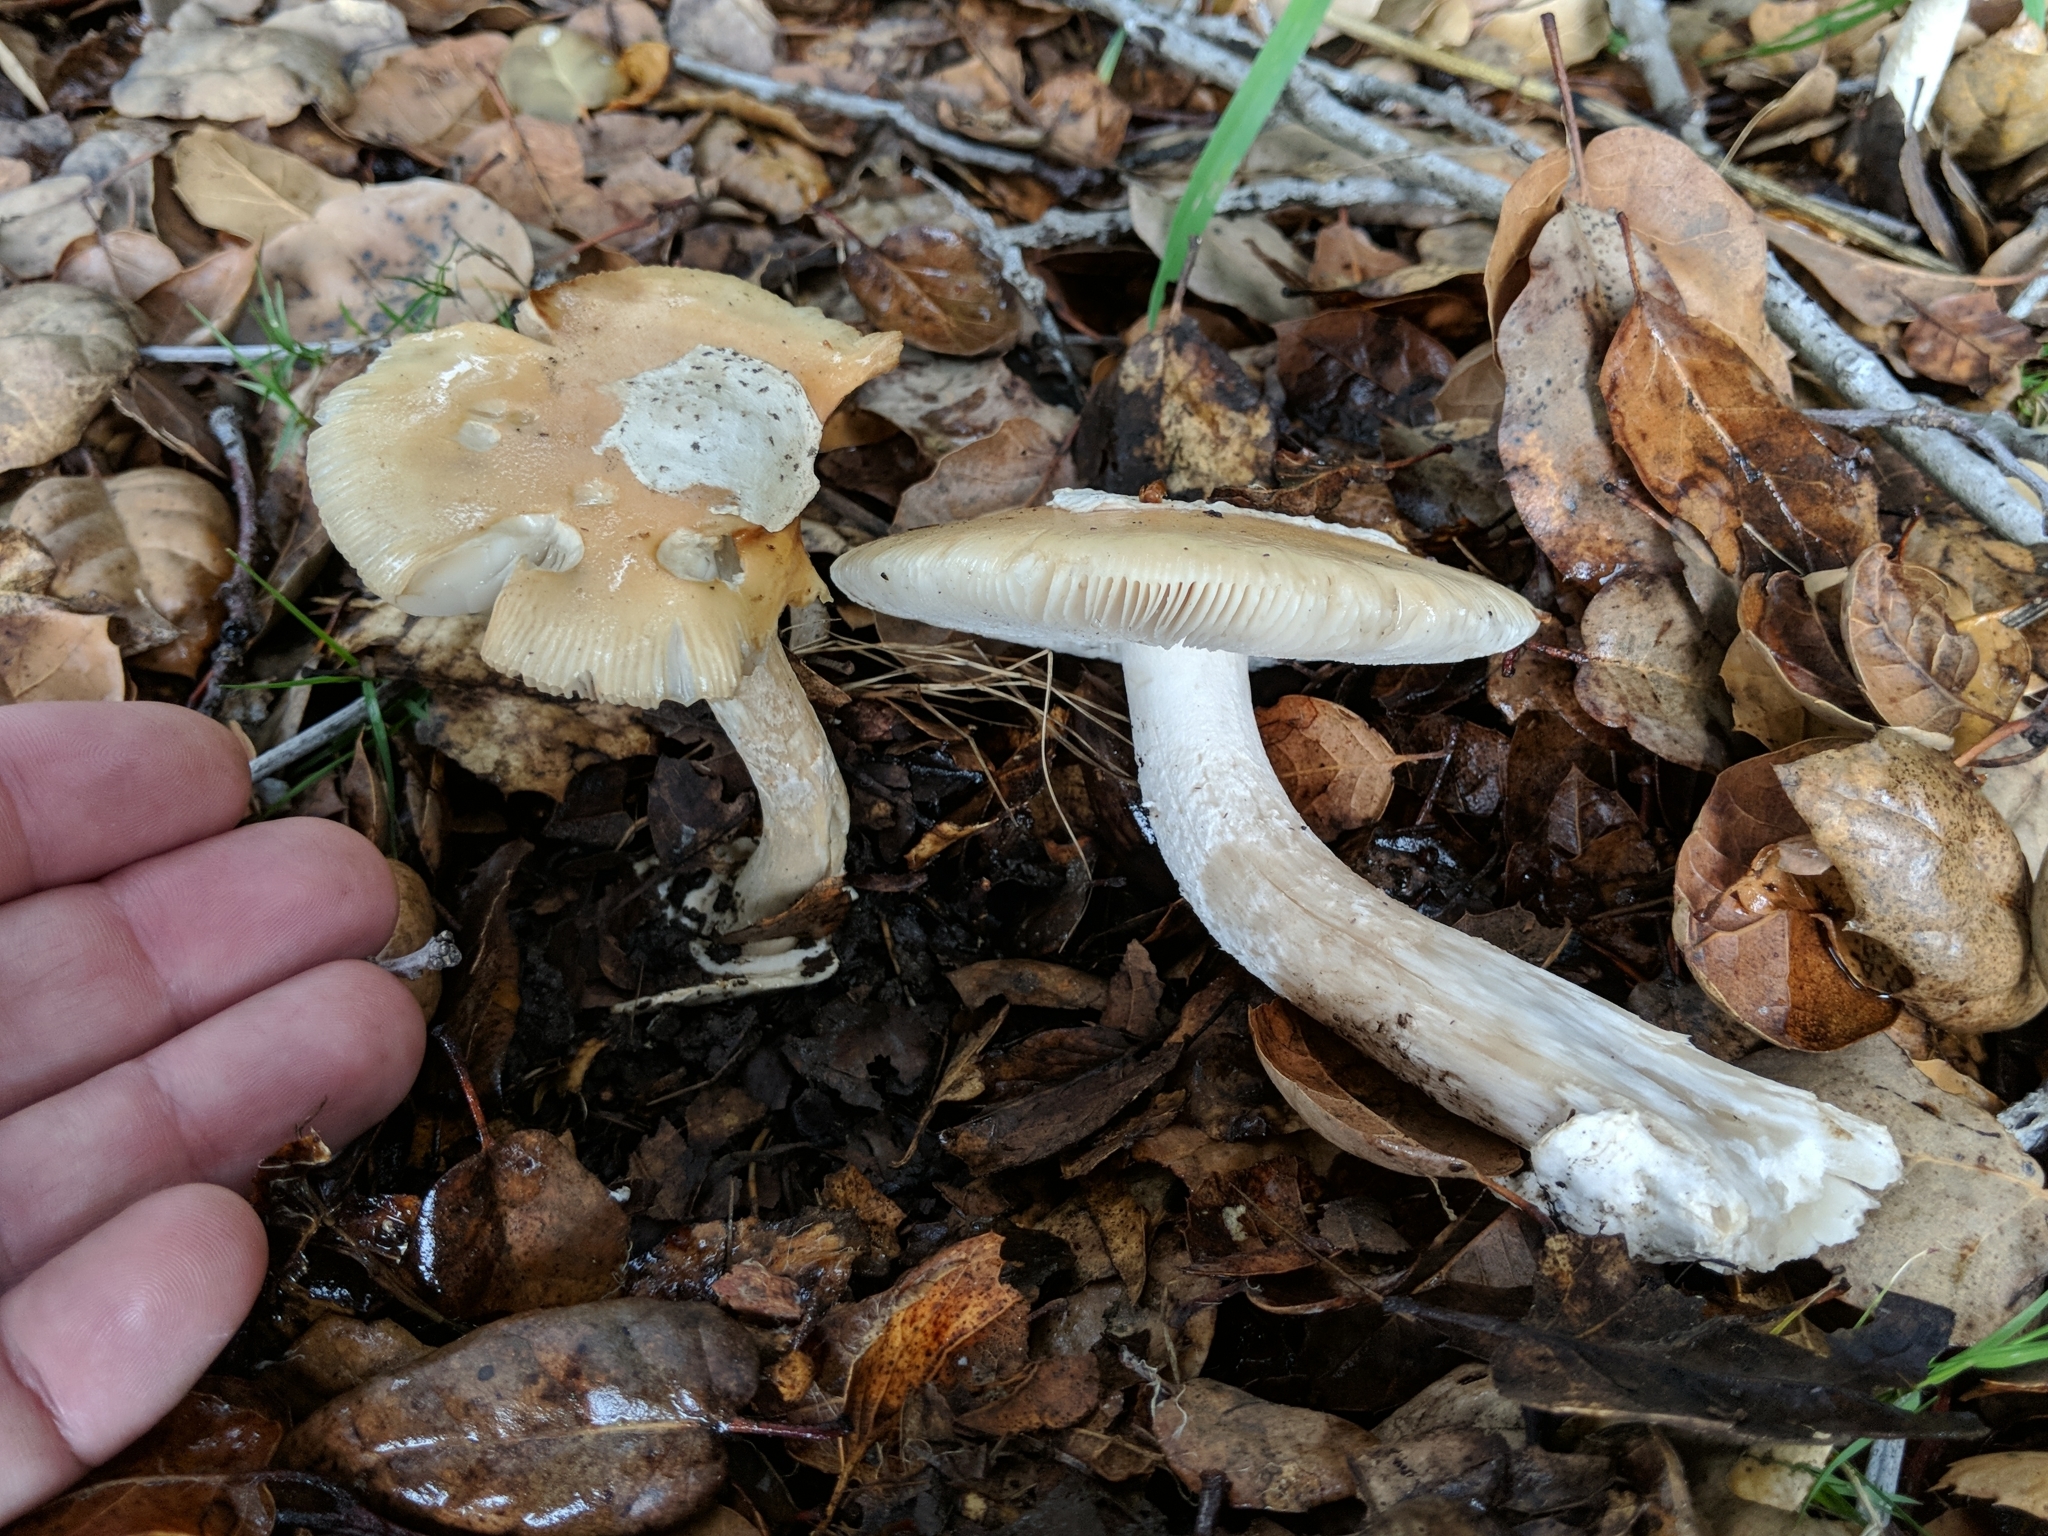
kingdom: Fungi
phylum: Basidiomycota
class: Agaricomycetes
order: Agaricales
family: Amanitaceae
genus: Amanita
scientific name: Amanita velosa
